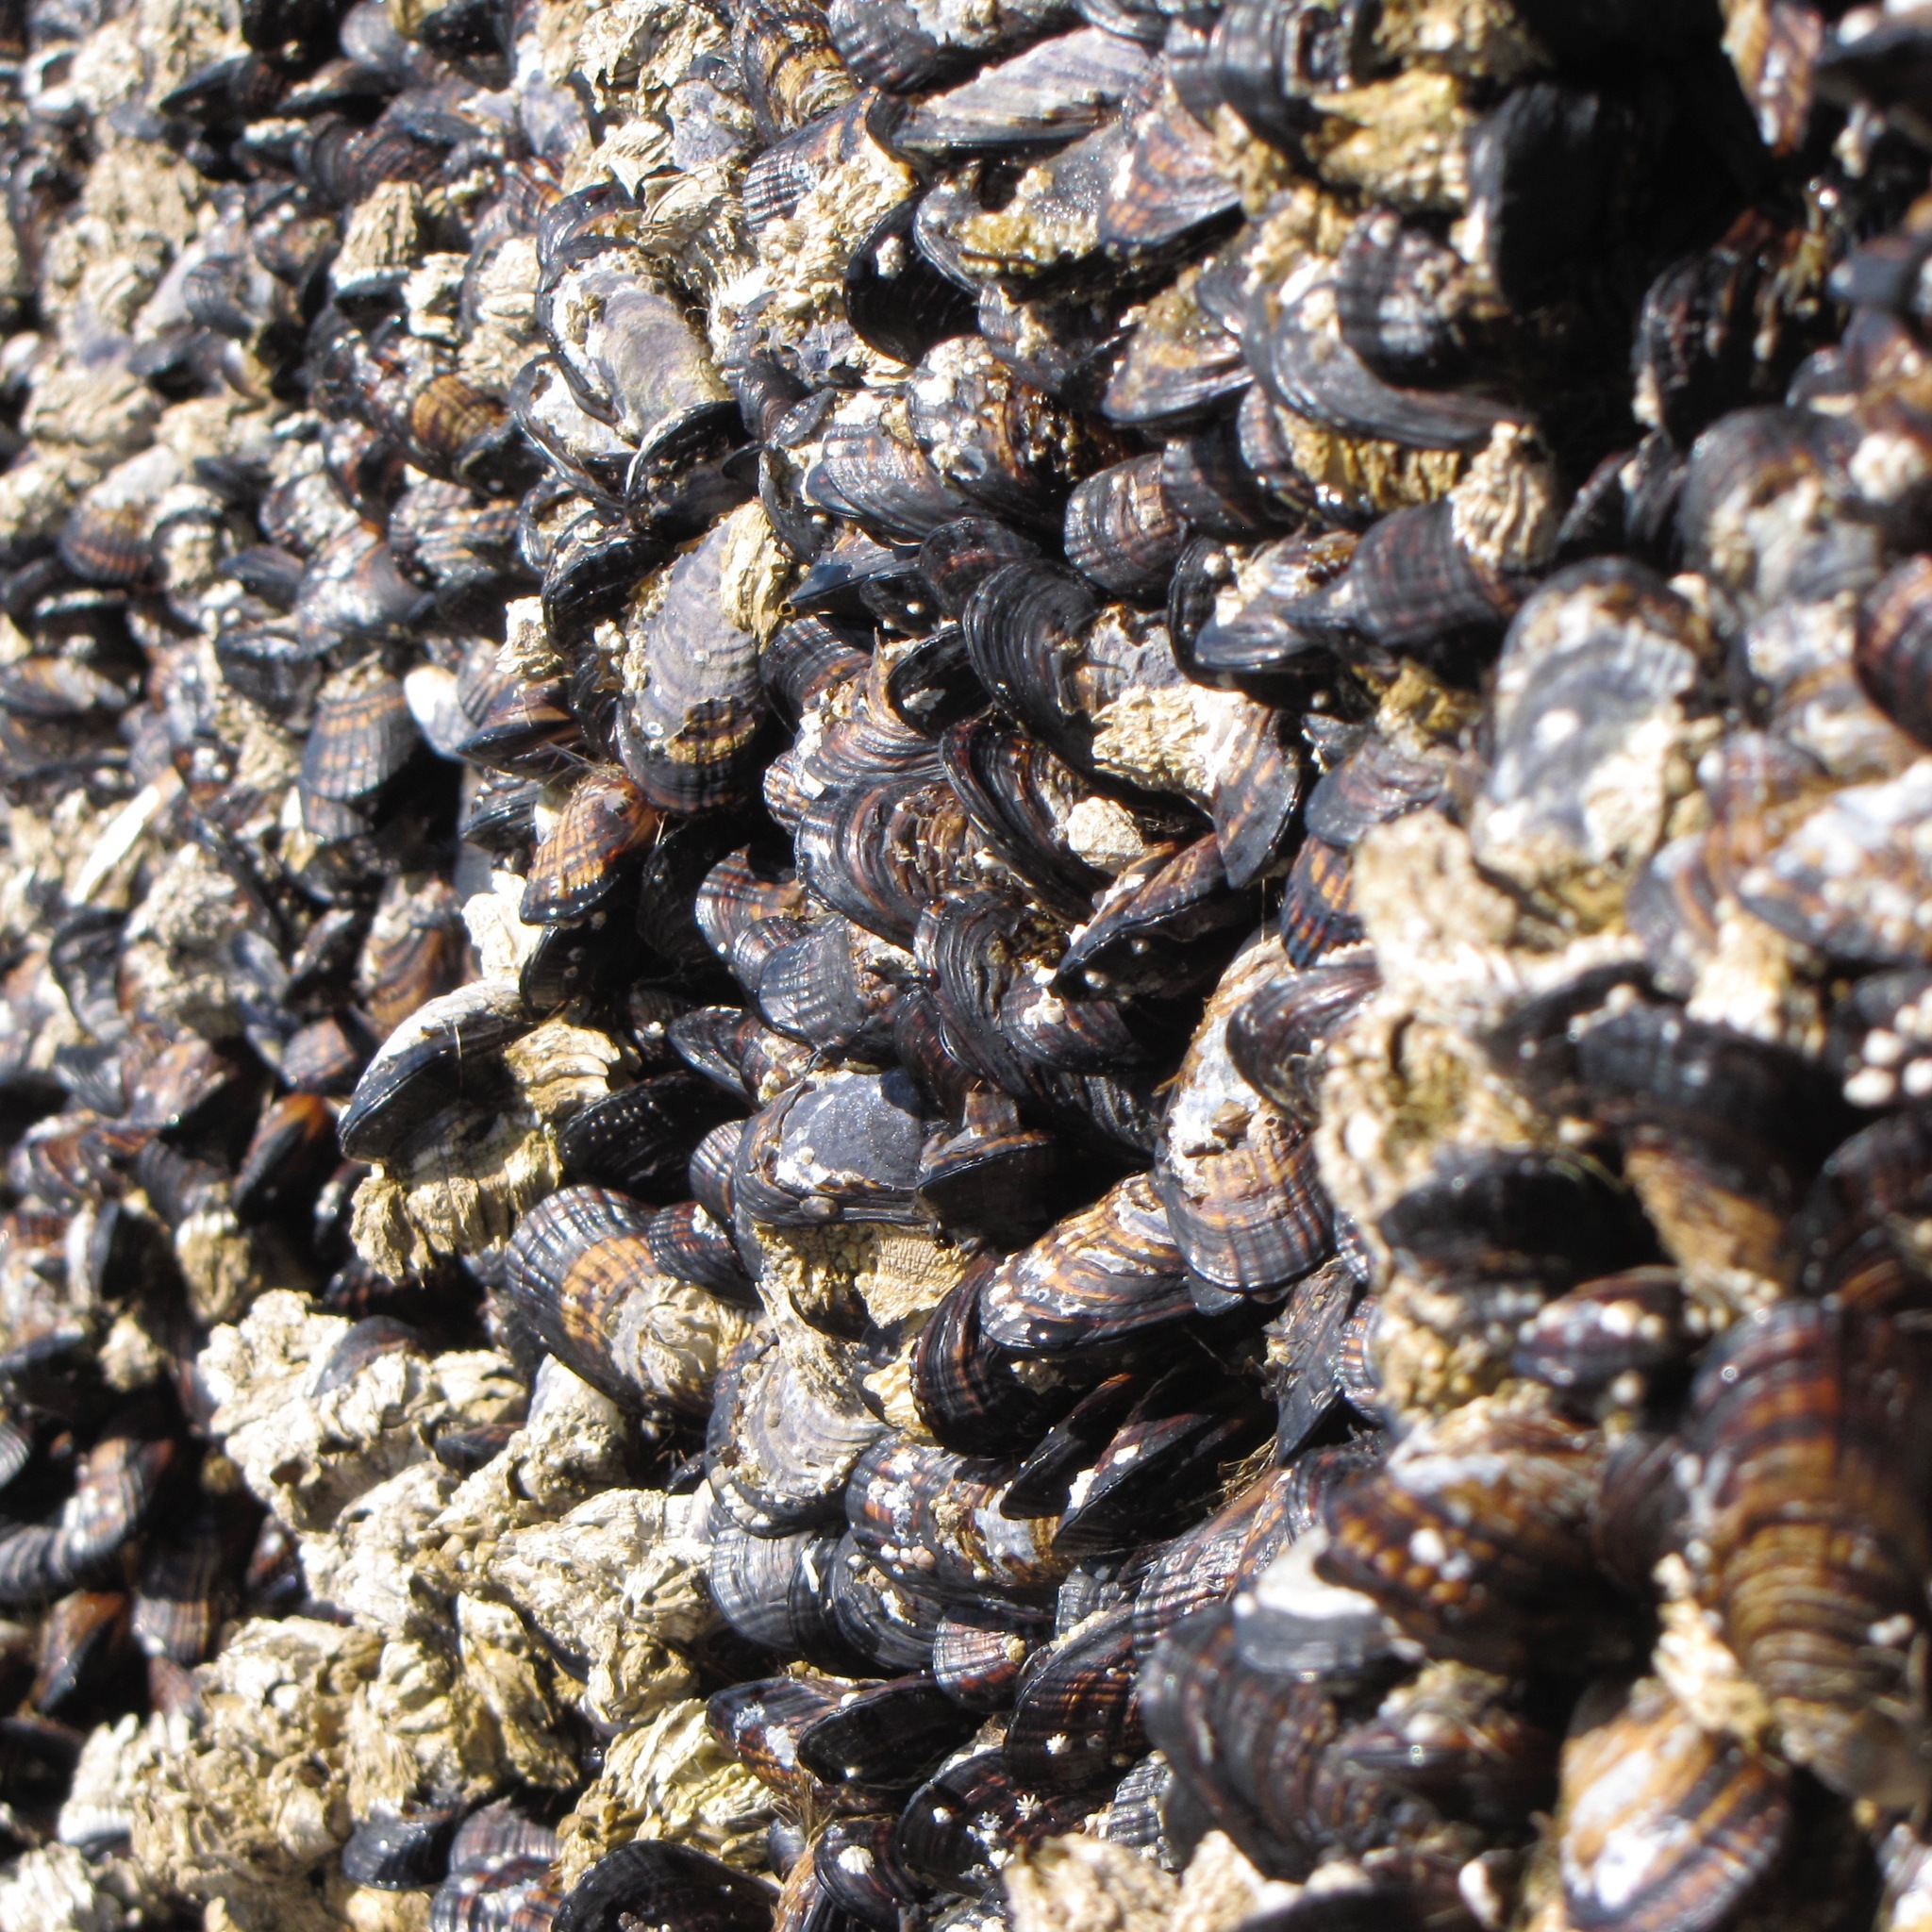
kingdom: Animalia
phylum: Mollusca
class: Bivalvia
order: Mytilida
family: Mytilidae
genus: Mytilus
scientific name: Mytilus californianus
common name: California mussel
